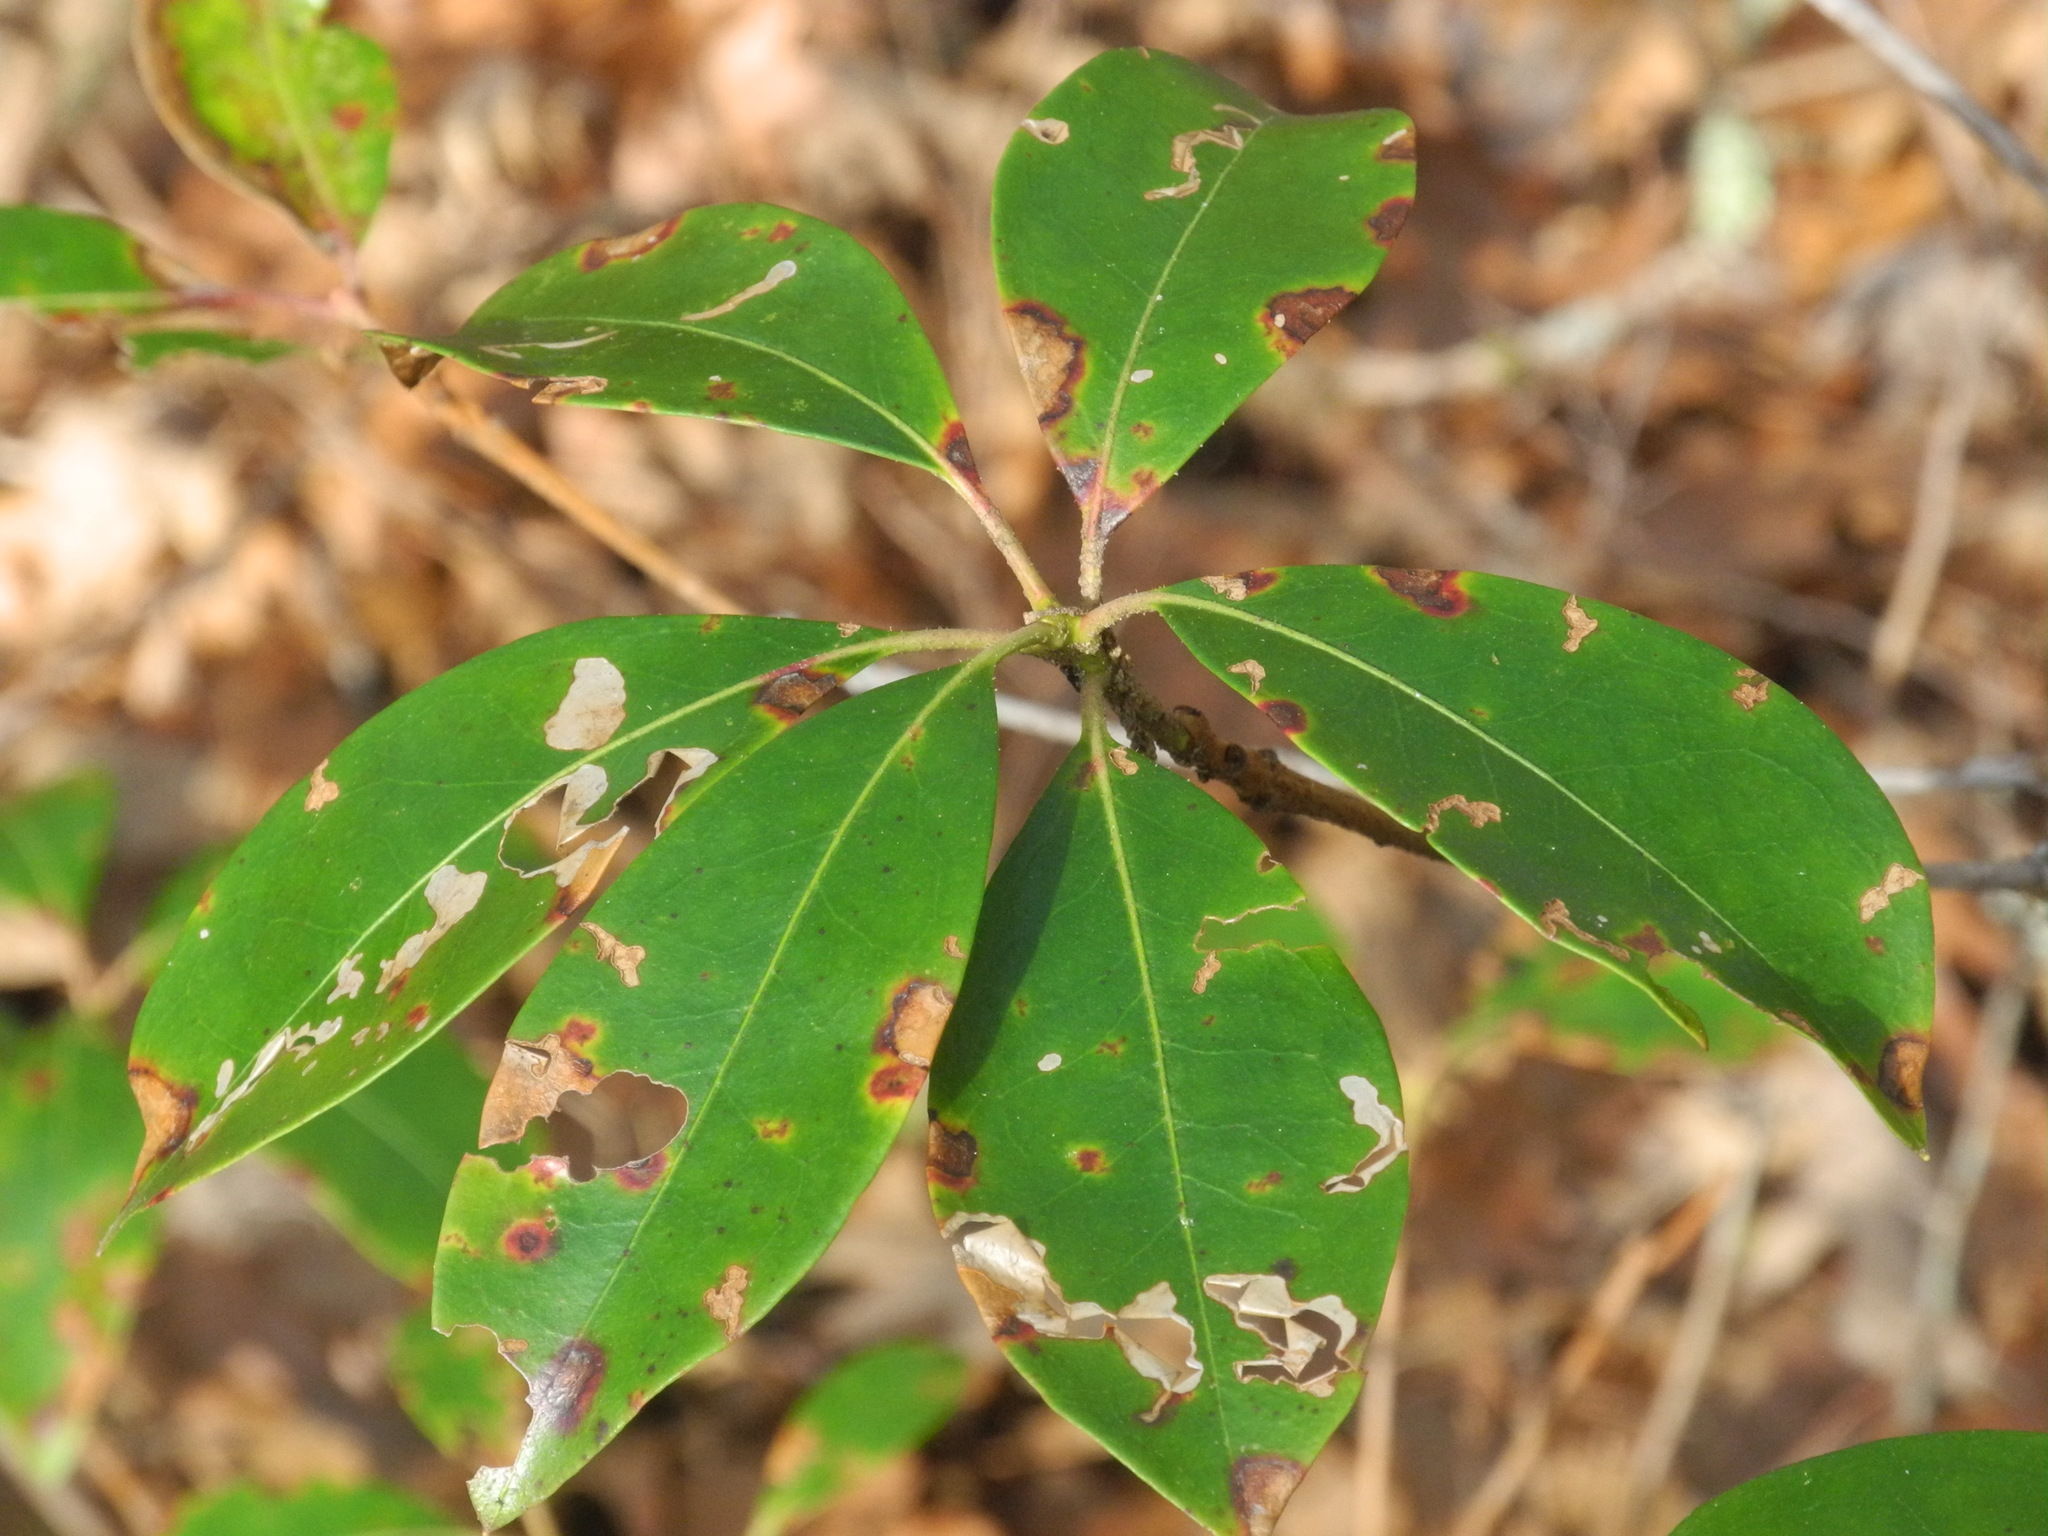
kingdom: Plantae
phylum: Tracheophyta
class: Magnoliopsida
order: Ericales
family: Ericaceae
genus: Kalmia
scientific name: Kalmia latifolia
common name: Mountain-laurel
